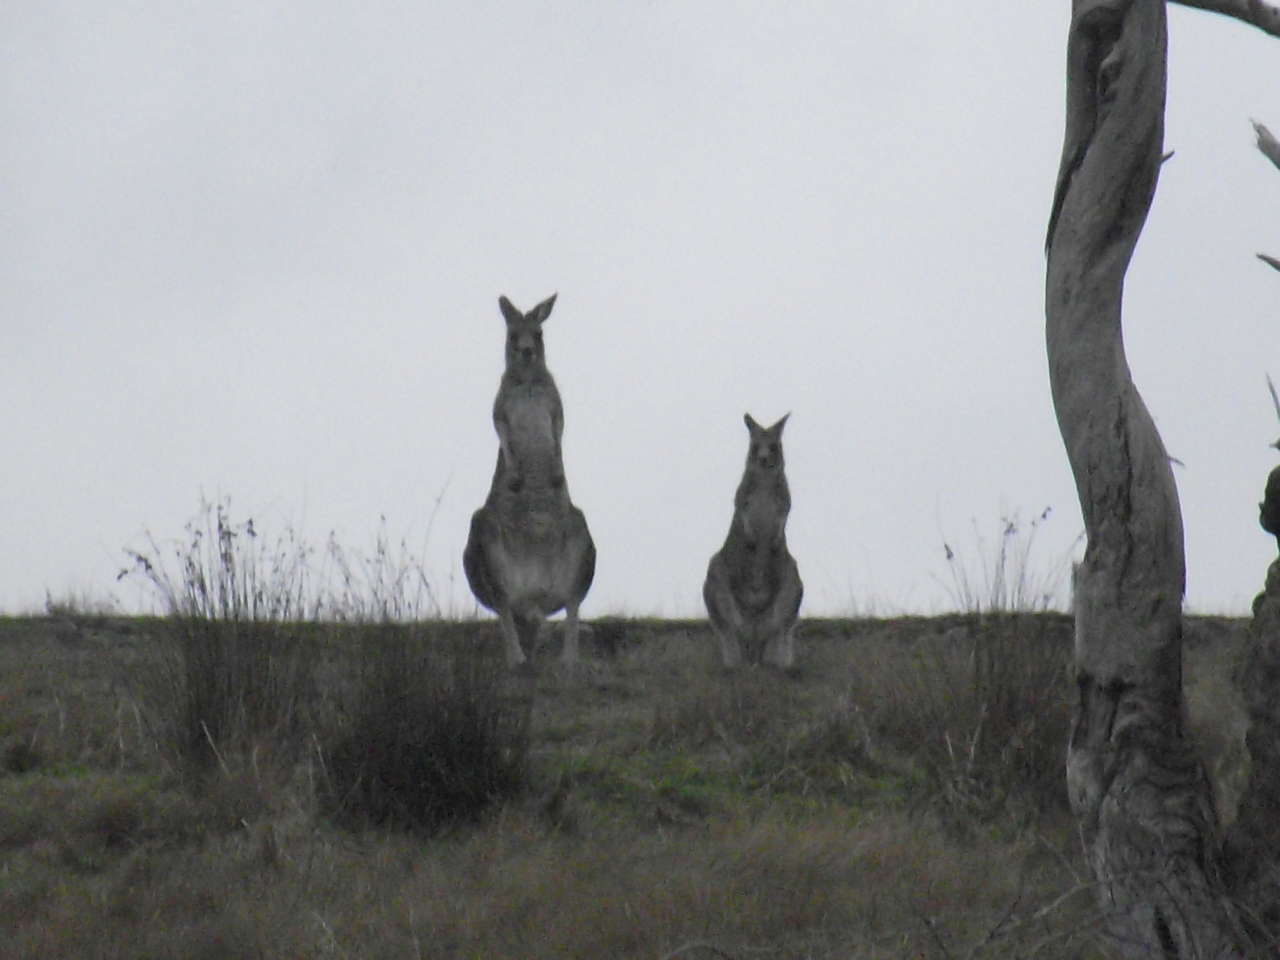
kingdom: Animalia
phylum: Chordata
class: Mammalia
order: Diprotodontia
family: Macropodidae
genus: Macropus
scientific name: Macropus giganteus
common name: Eastern grey kangaroo
